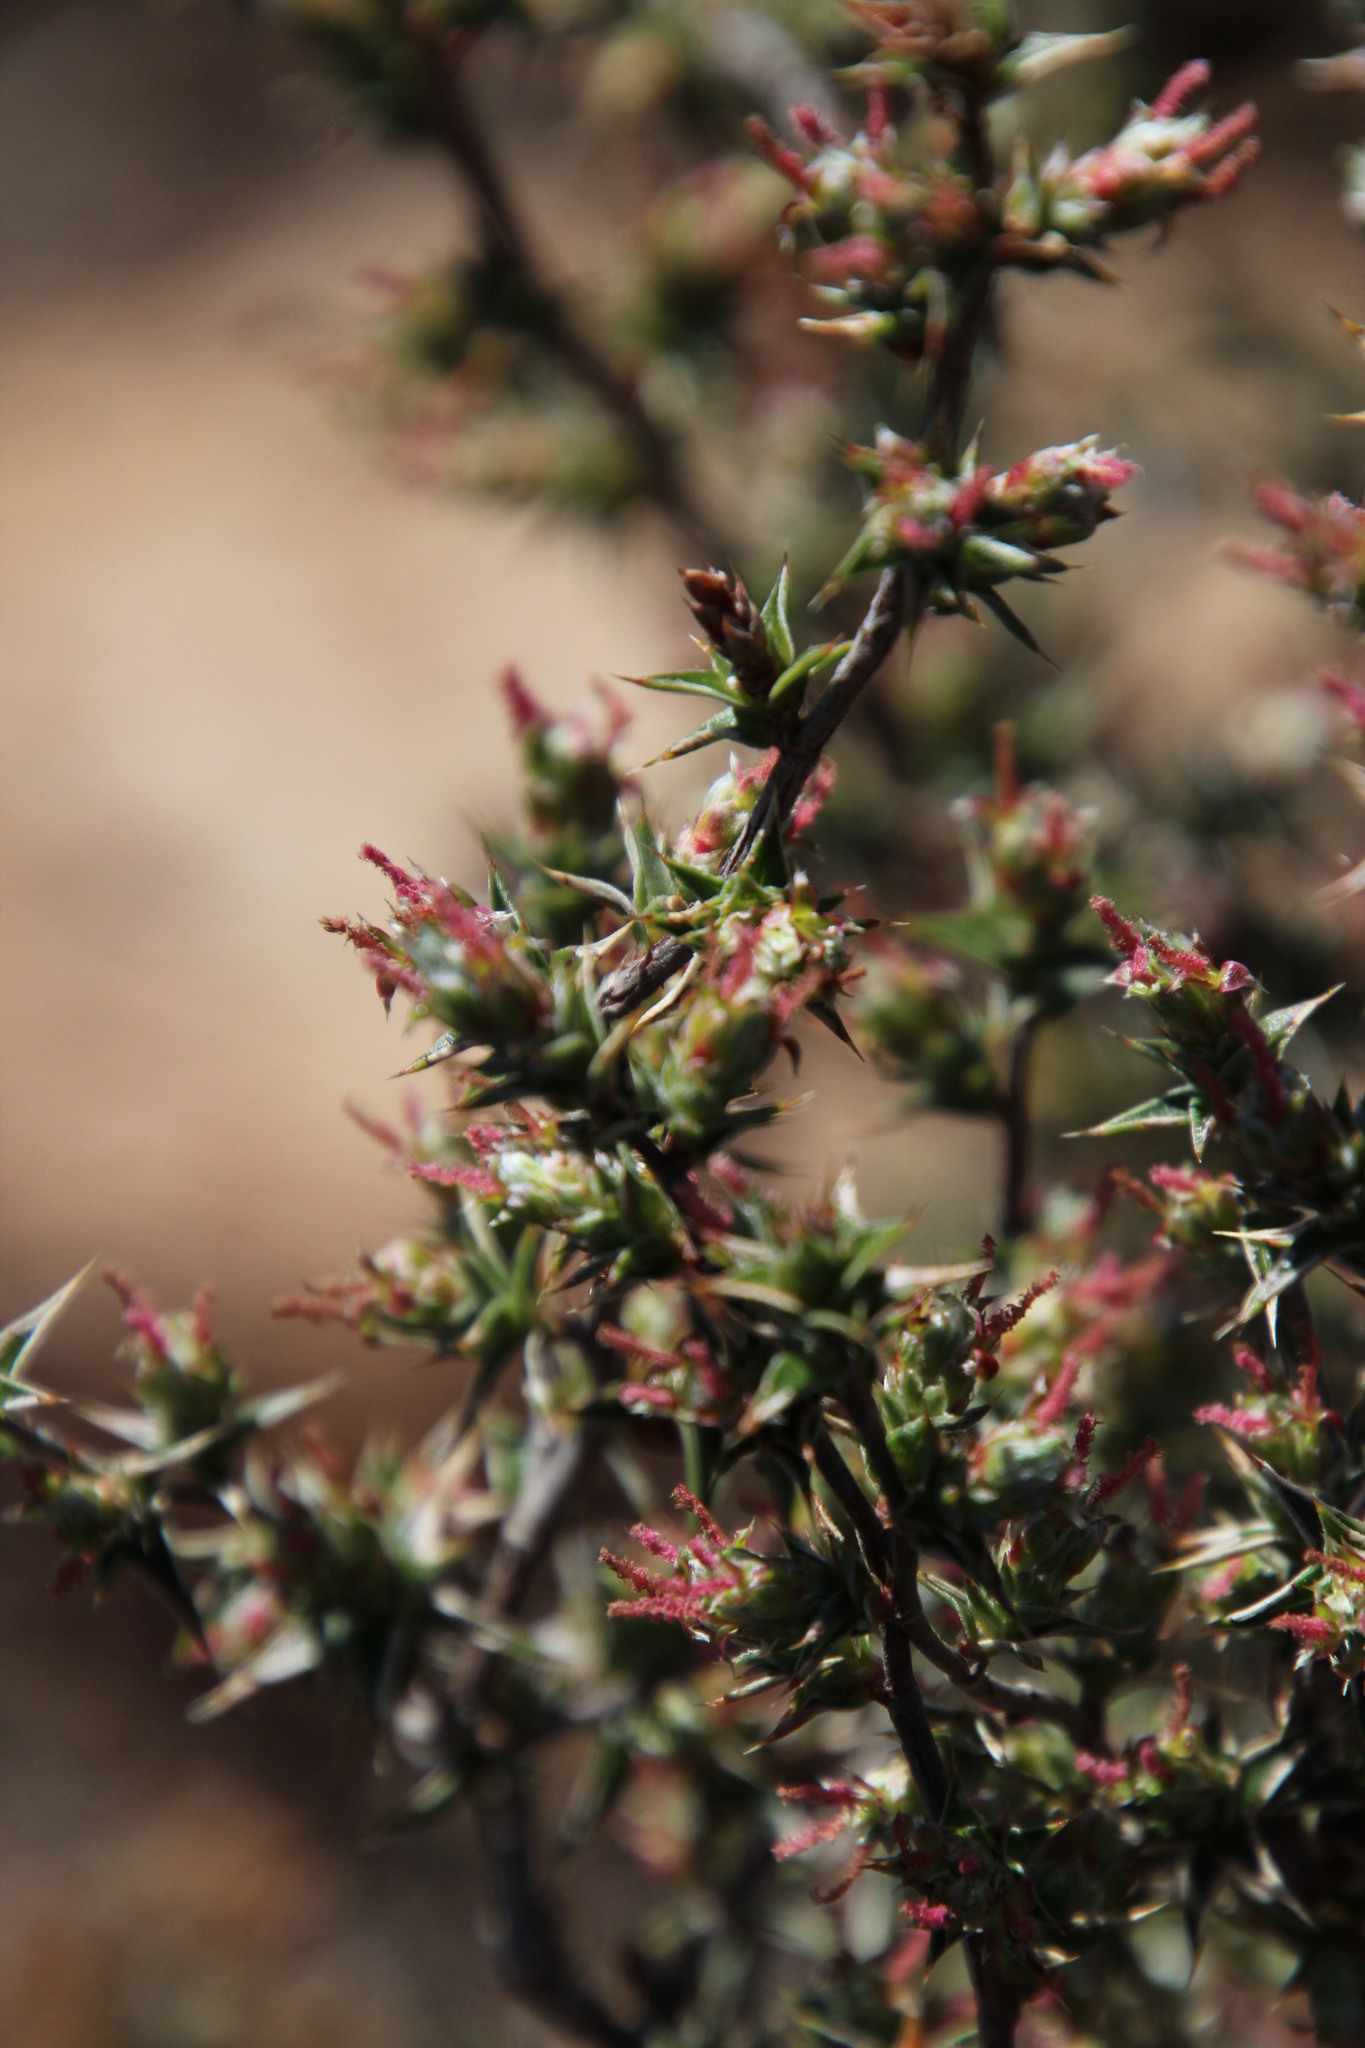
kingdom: Plantae
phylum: Tracheophyta
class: Magnoliopsida
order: Rosales
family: Rosaceae
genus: Cliffortia
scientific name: Cliffortia ruscifolia
